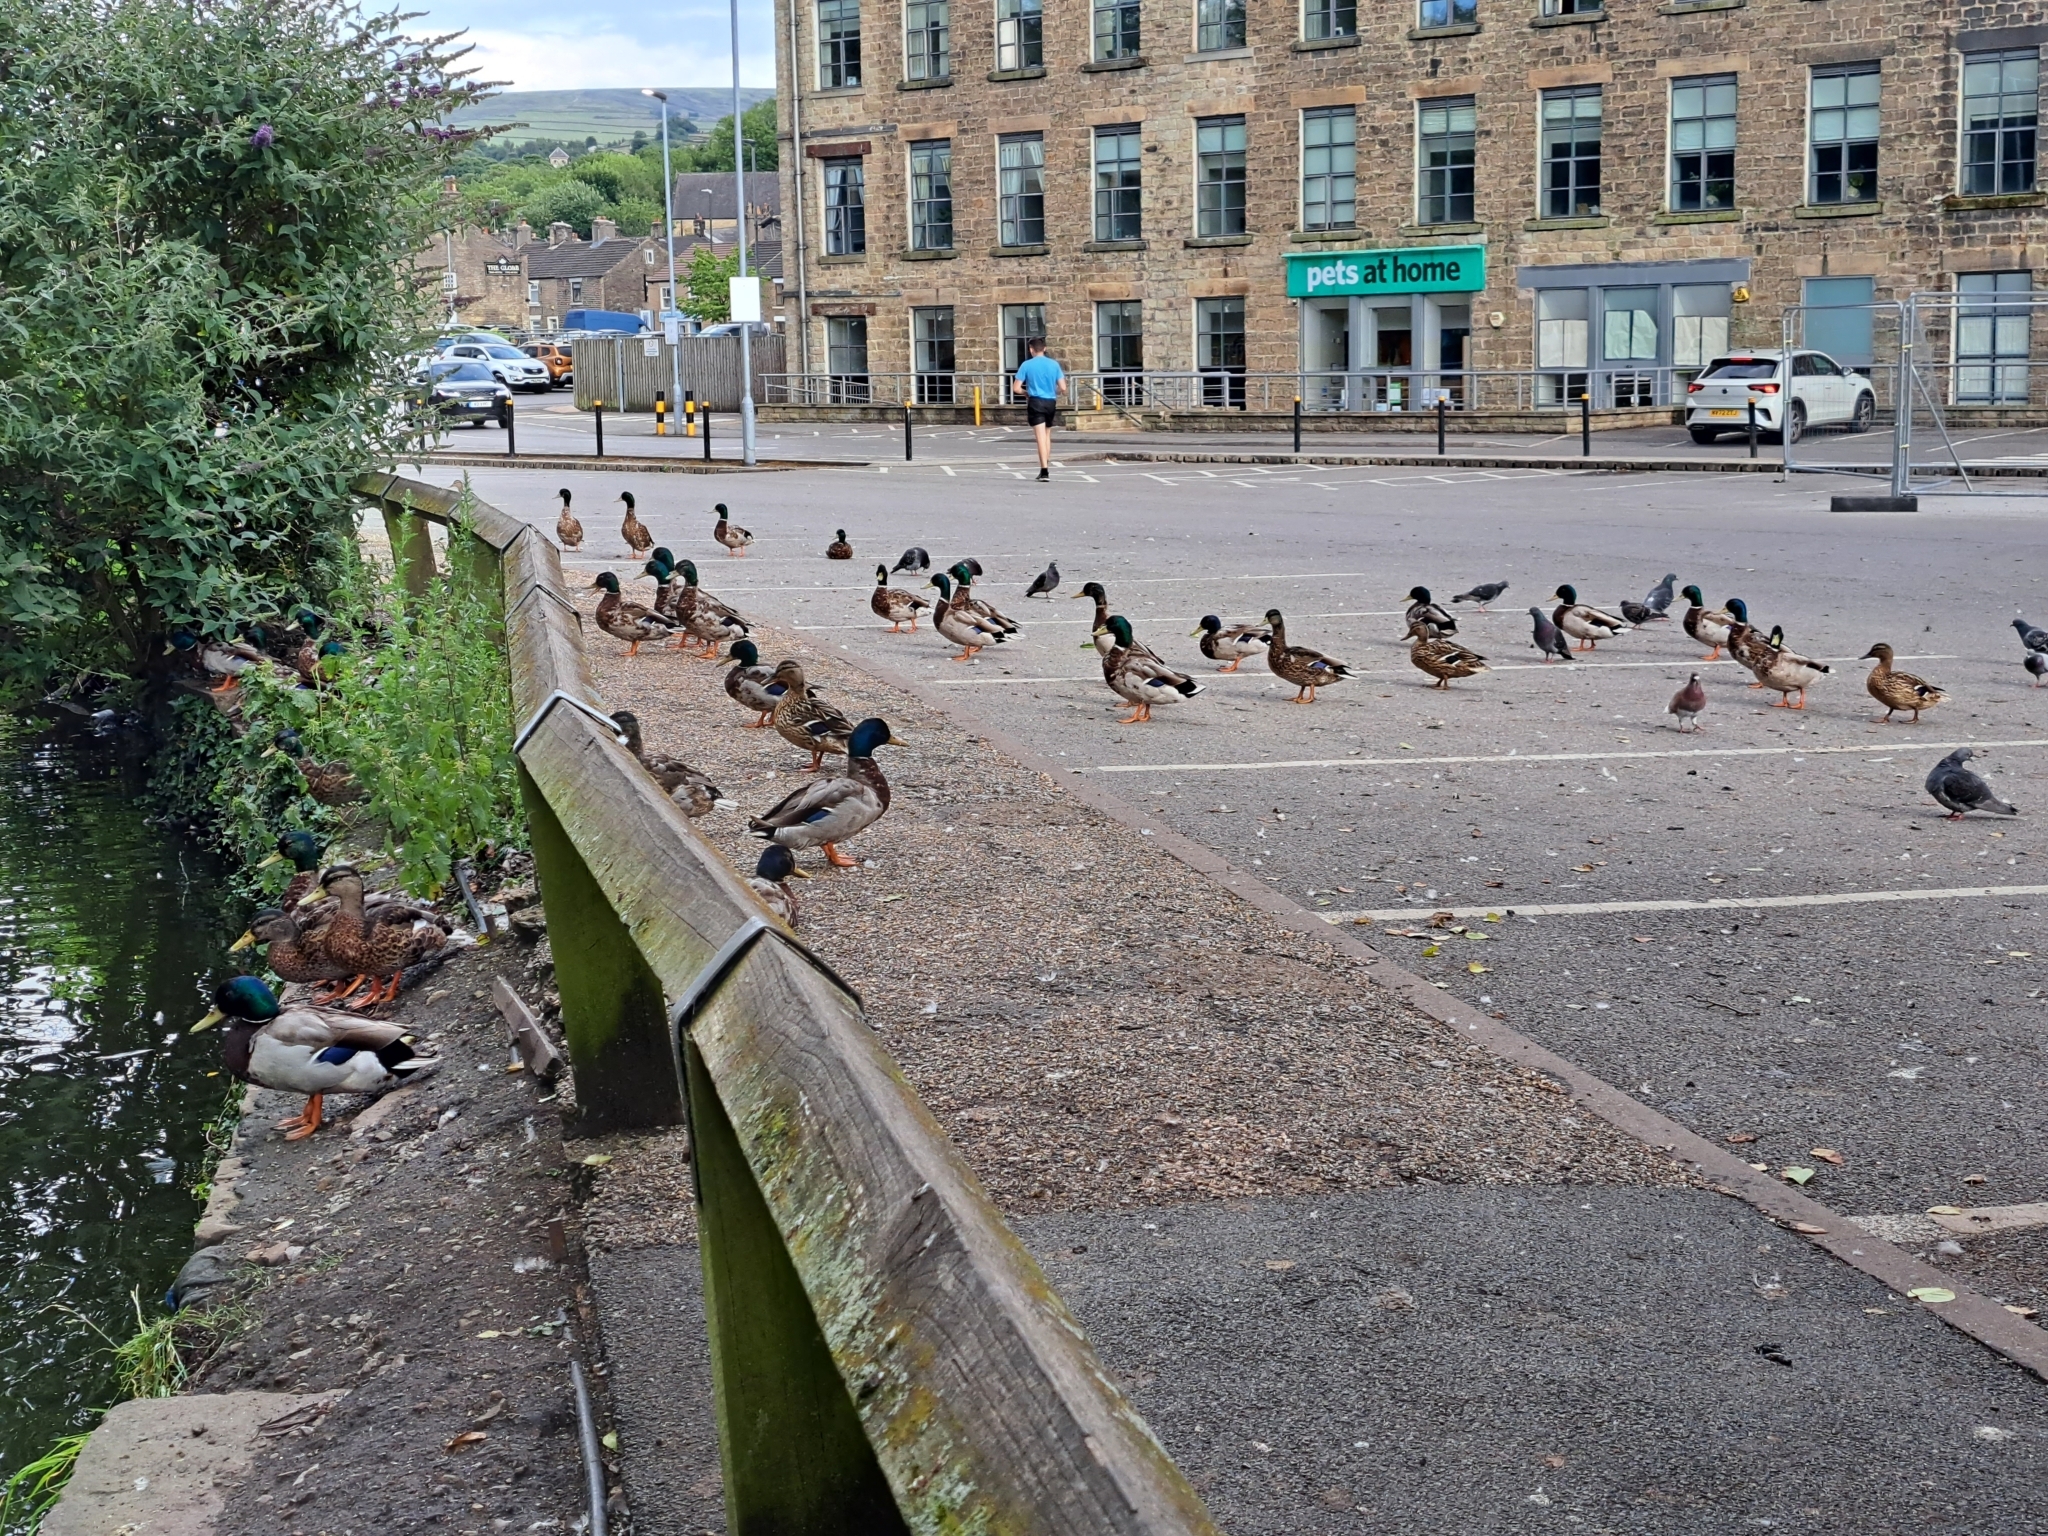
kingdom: Animalia
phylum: Chordata
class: Aves
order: Anseriformes
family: Anatidae
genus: Anas
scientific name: Anas platyrhynchos
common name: Mallard
